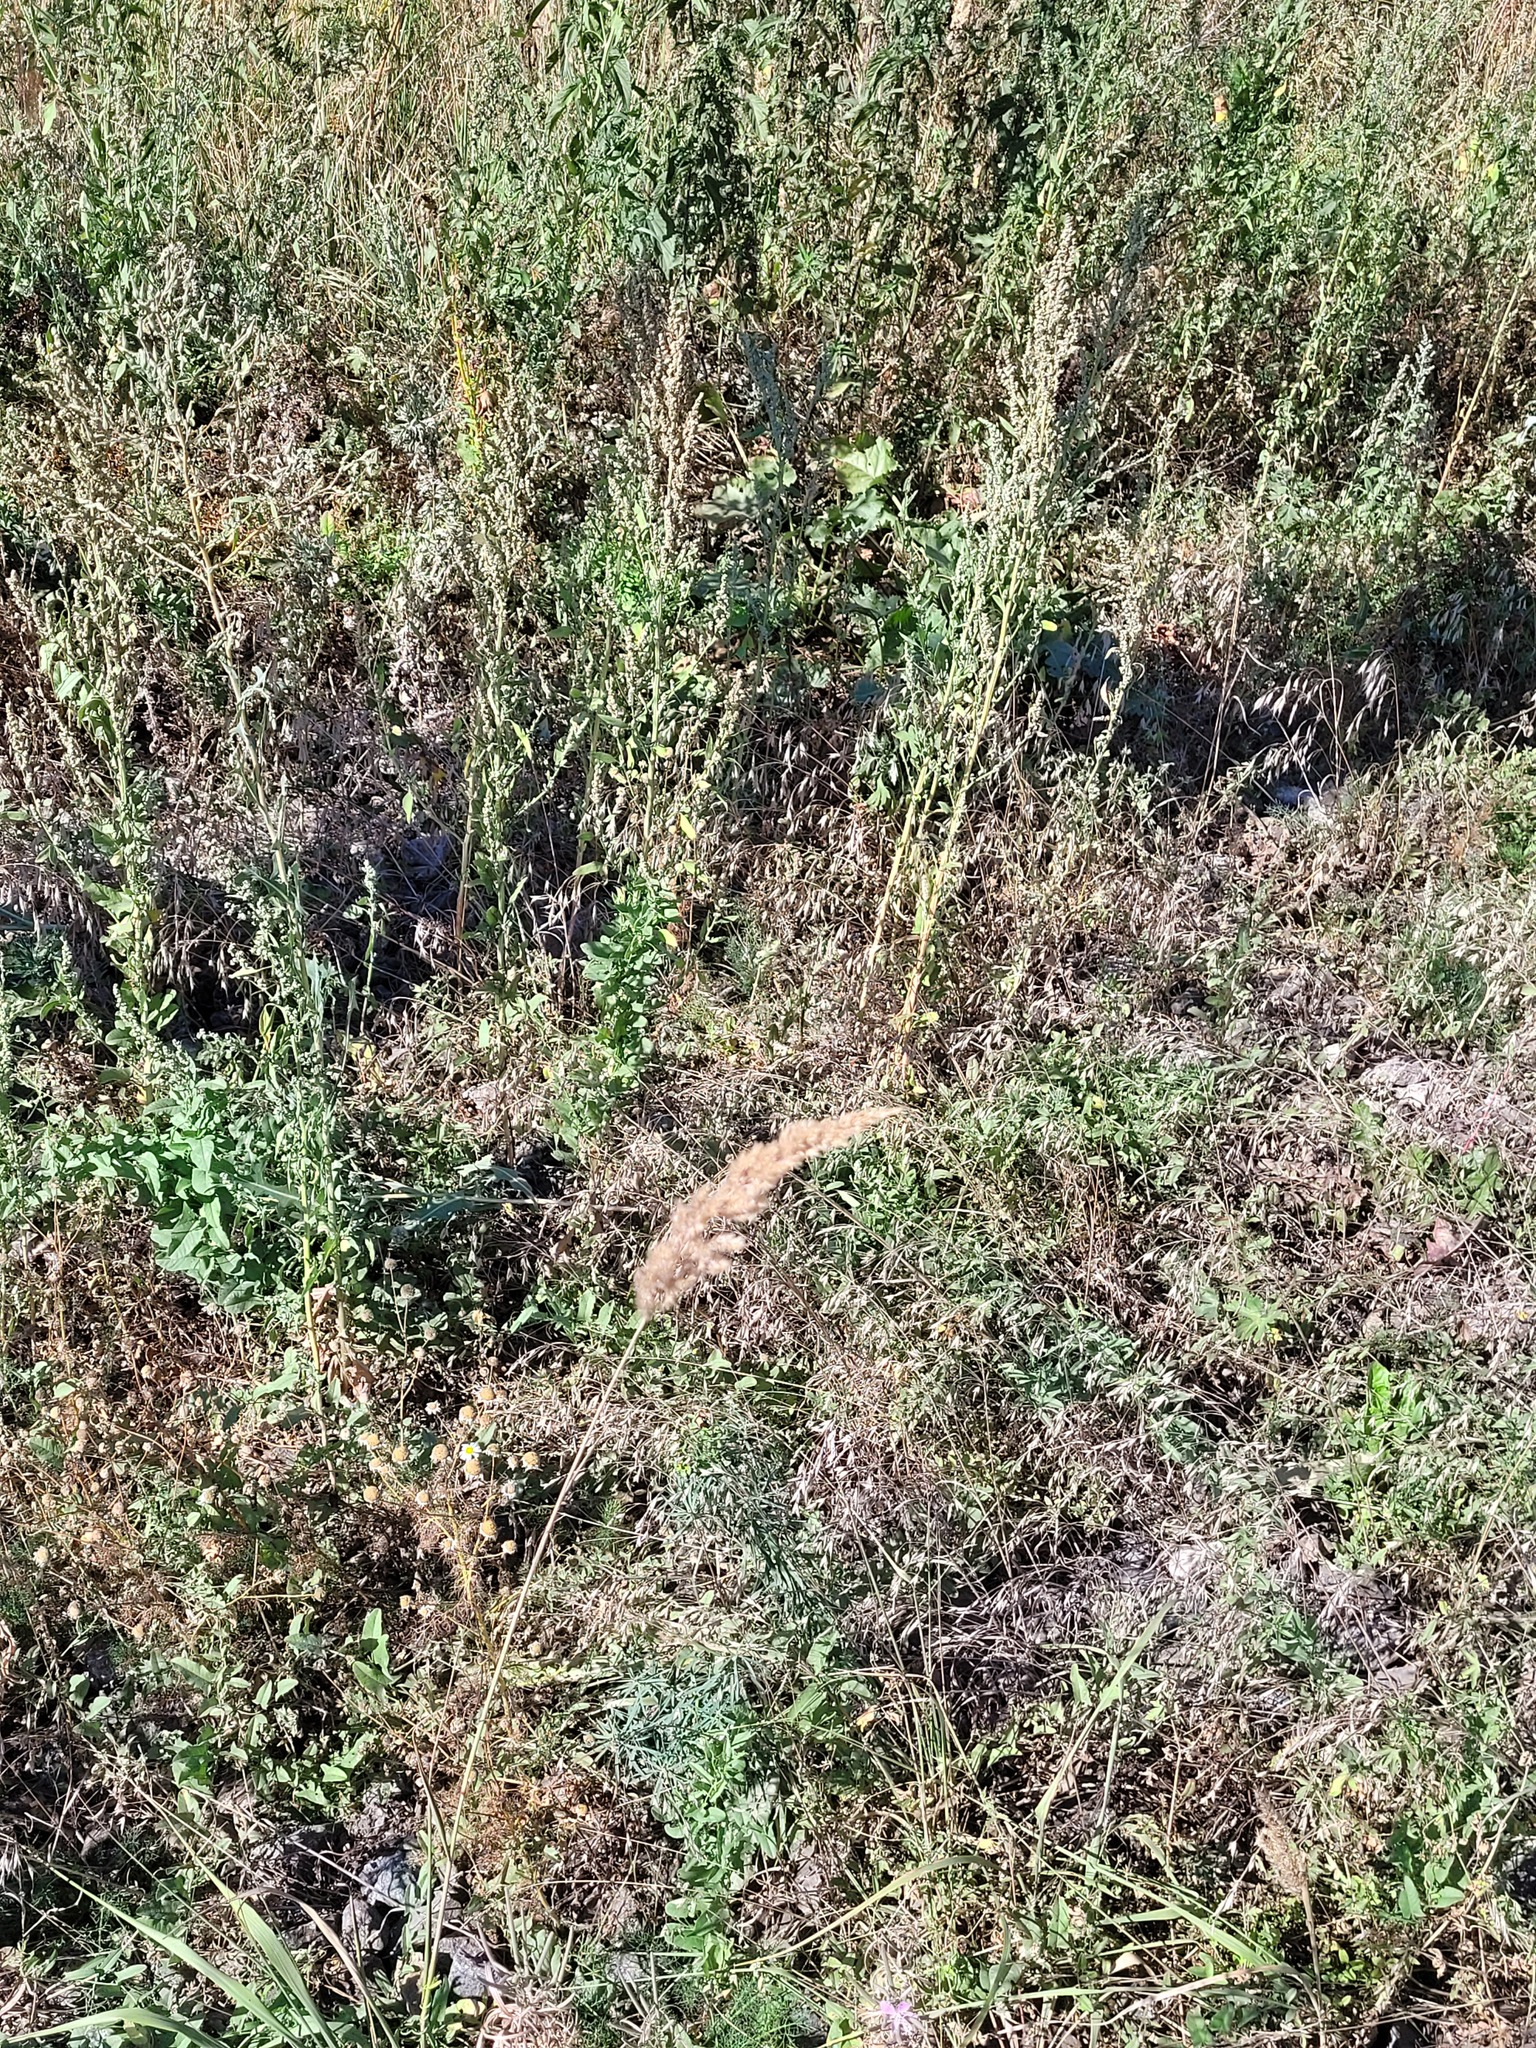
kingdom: Plantae
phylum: Tracheophyta
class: Liliopsida
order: Poales
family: Poaceae
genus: Calamagrostis
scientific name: Calamagrostis epigejos
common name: Wood small-reed
